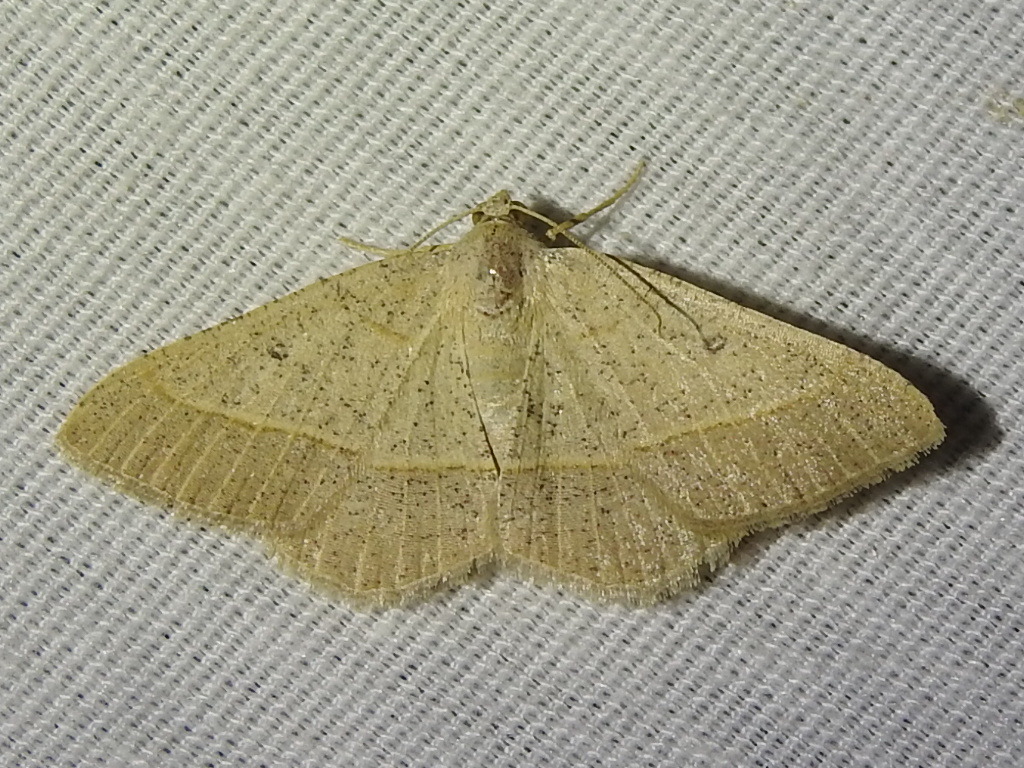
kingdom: Animalia
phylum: Arthropoda
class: Insecta
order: Lepidoptera
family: Geometridae
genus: Digrammia
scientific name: Digrammia irrorata
